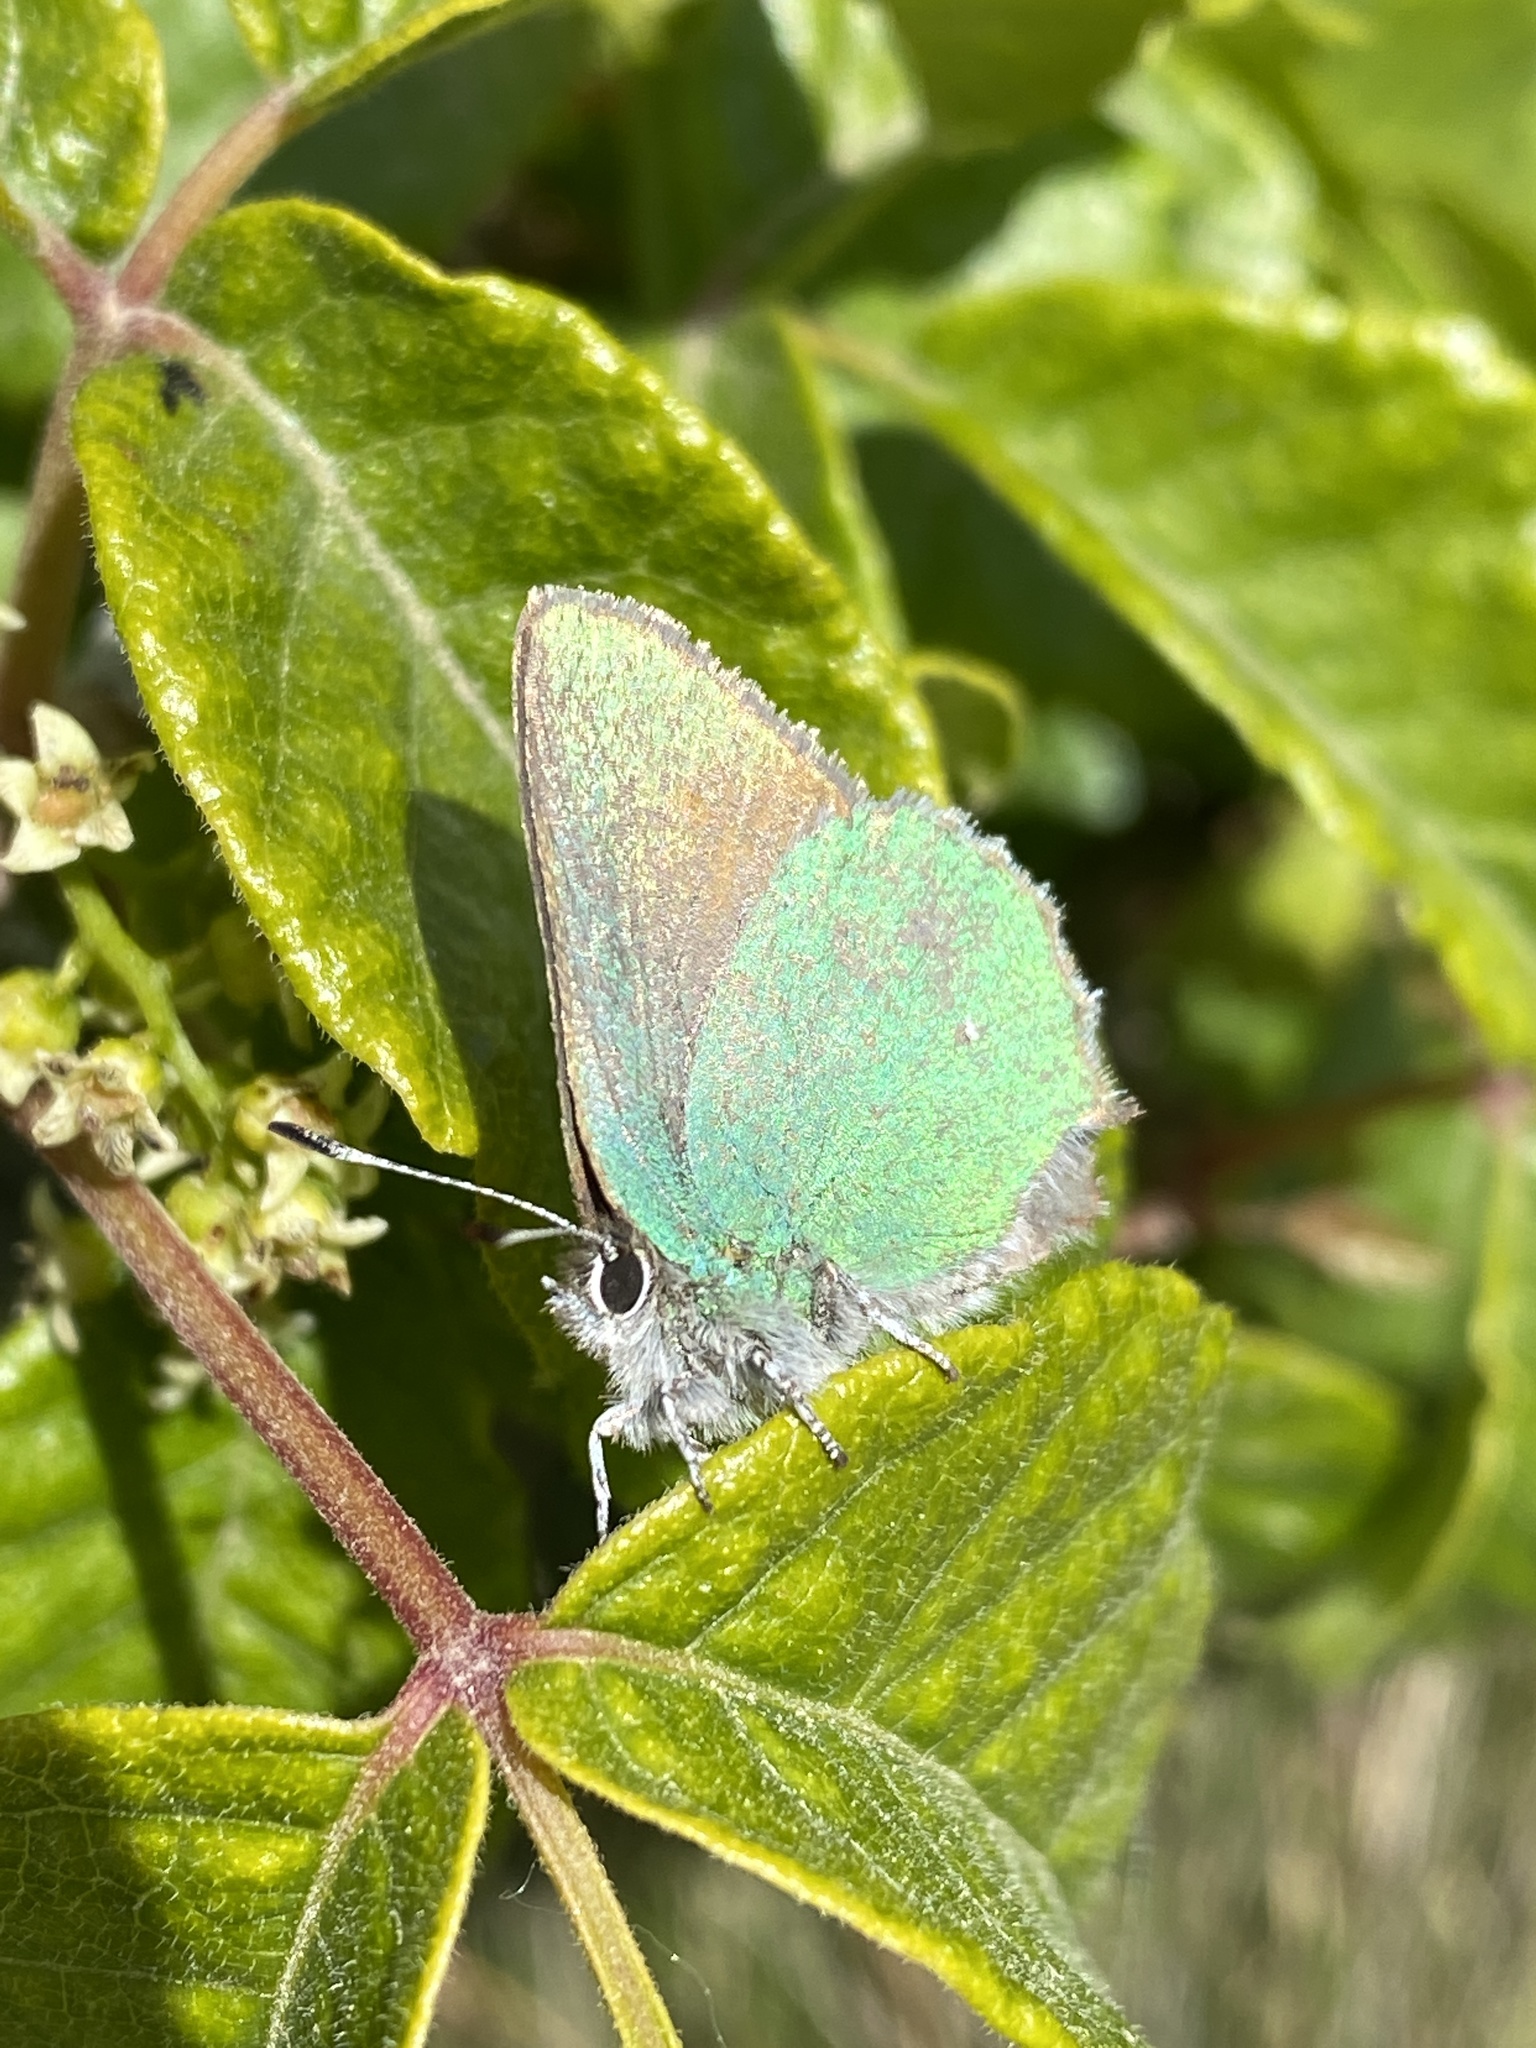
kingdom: Animalia
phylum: Arthropoda
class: Insecta
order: Lepidoptera
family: Lycaenidae
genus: Callophrys
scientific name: Callophrys dumetorum
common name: Bramble hairstreak
